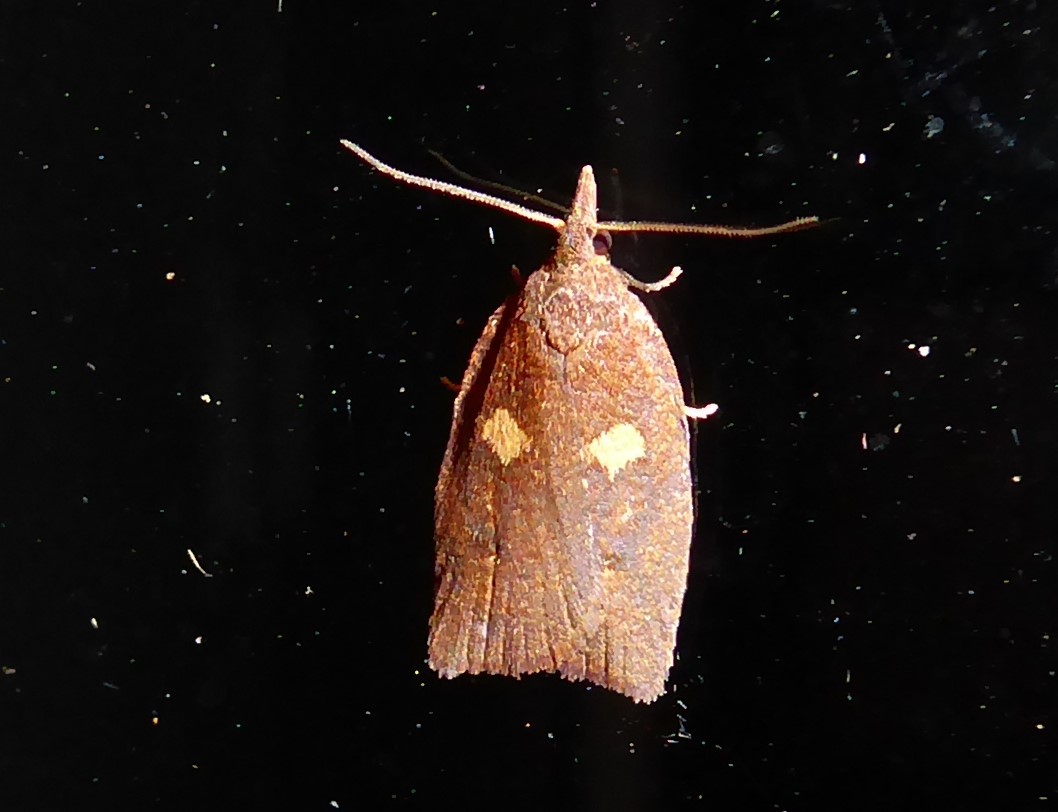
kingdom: Animalia
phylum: Arthropoda
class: Insecta
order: Lepidoptera
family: Tortricidae
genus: Planotortrix
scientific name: Planotortrix excessana
